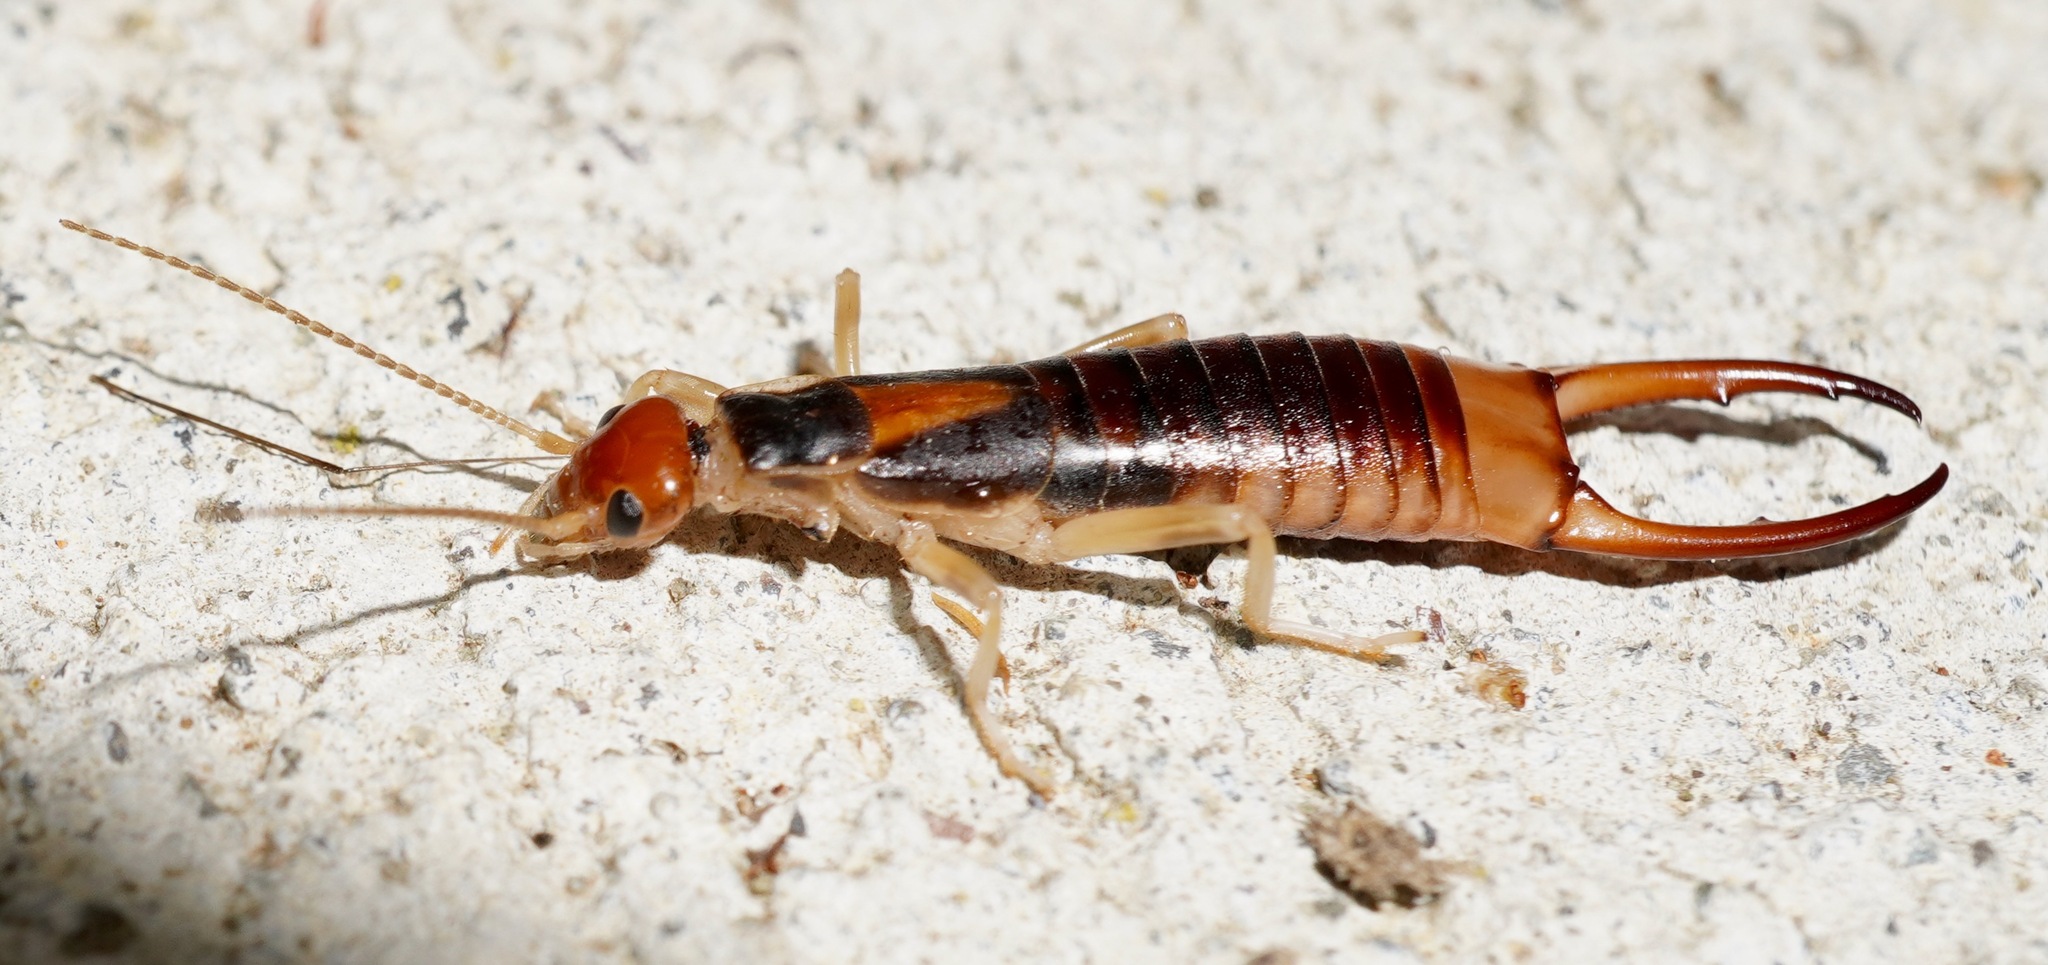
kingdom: Animalia
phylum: Arthropoda
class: Insecta
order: Dermaptera
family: Labiduridae
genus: Labidura
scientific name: Labidura riparia
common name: Striped earwig
